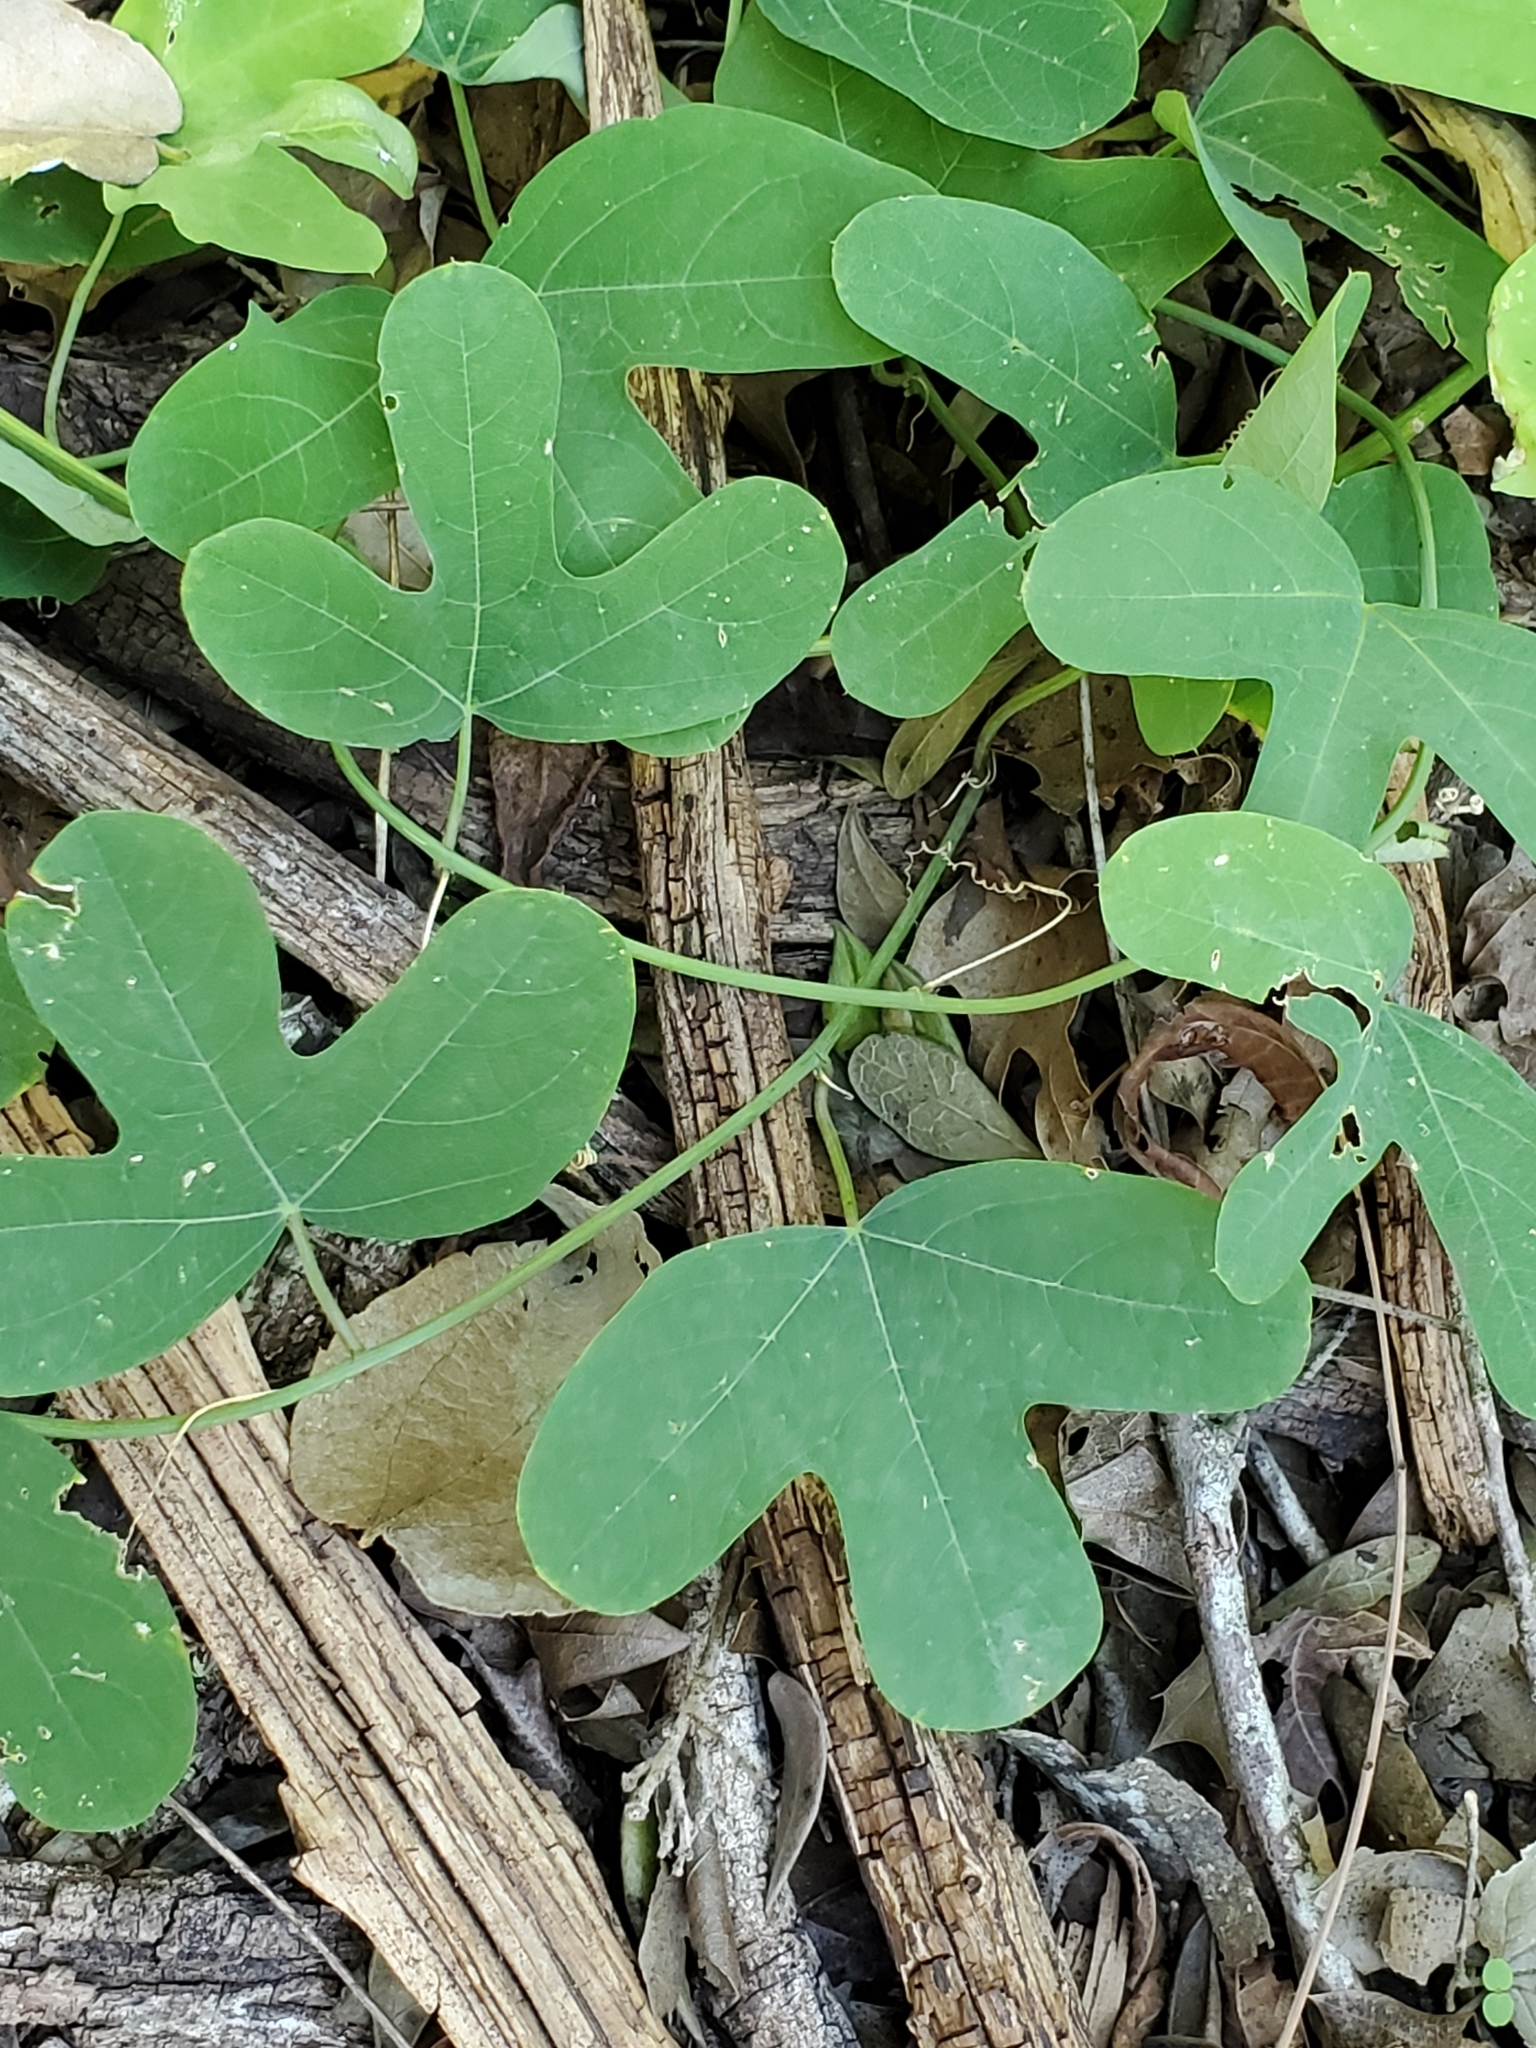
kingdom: Plantae
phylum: Tracheophyta
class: Magnoliopsida
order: Malpighiales
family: Passifloraceae
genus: Passiflora
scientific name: Passiflora affinis
